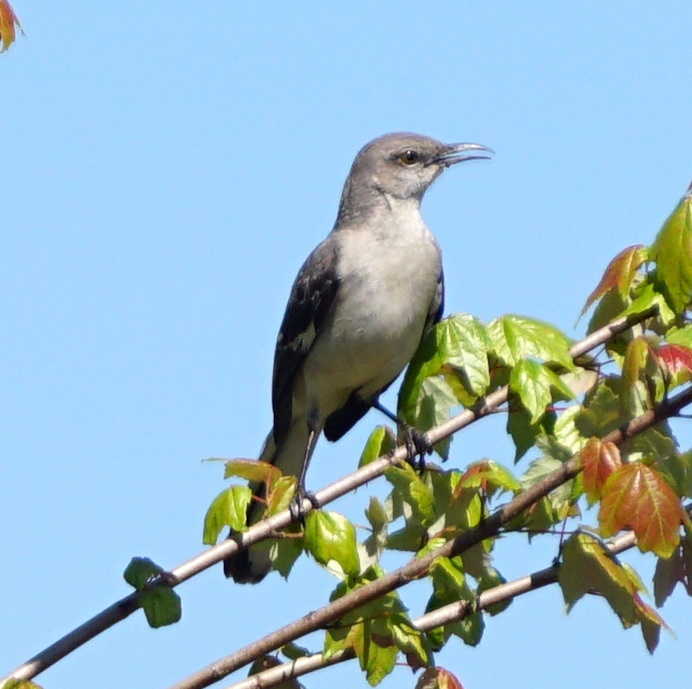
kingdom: Animalia
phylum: Chordata
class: Aves
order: Passeriformes
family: Mimidae
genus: Mimus
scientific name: Mimus polyglottos
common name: Northern mockingbird
